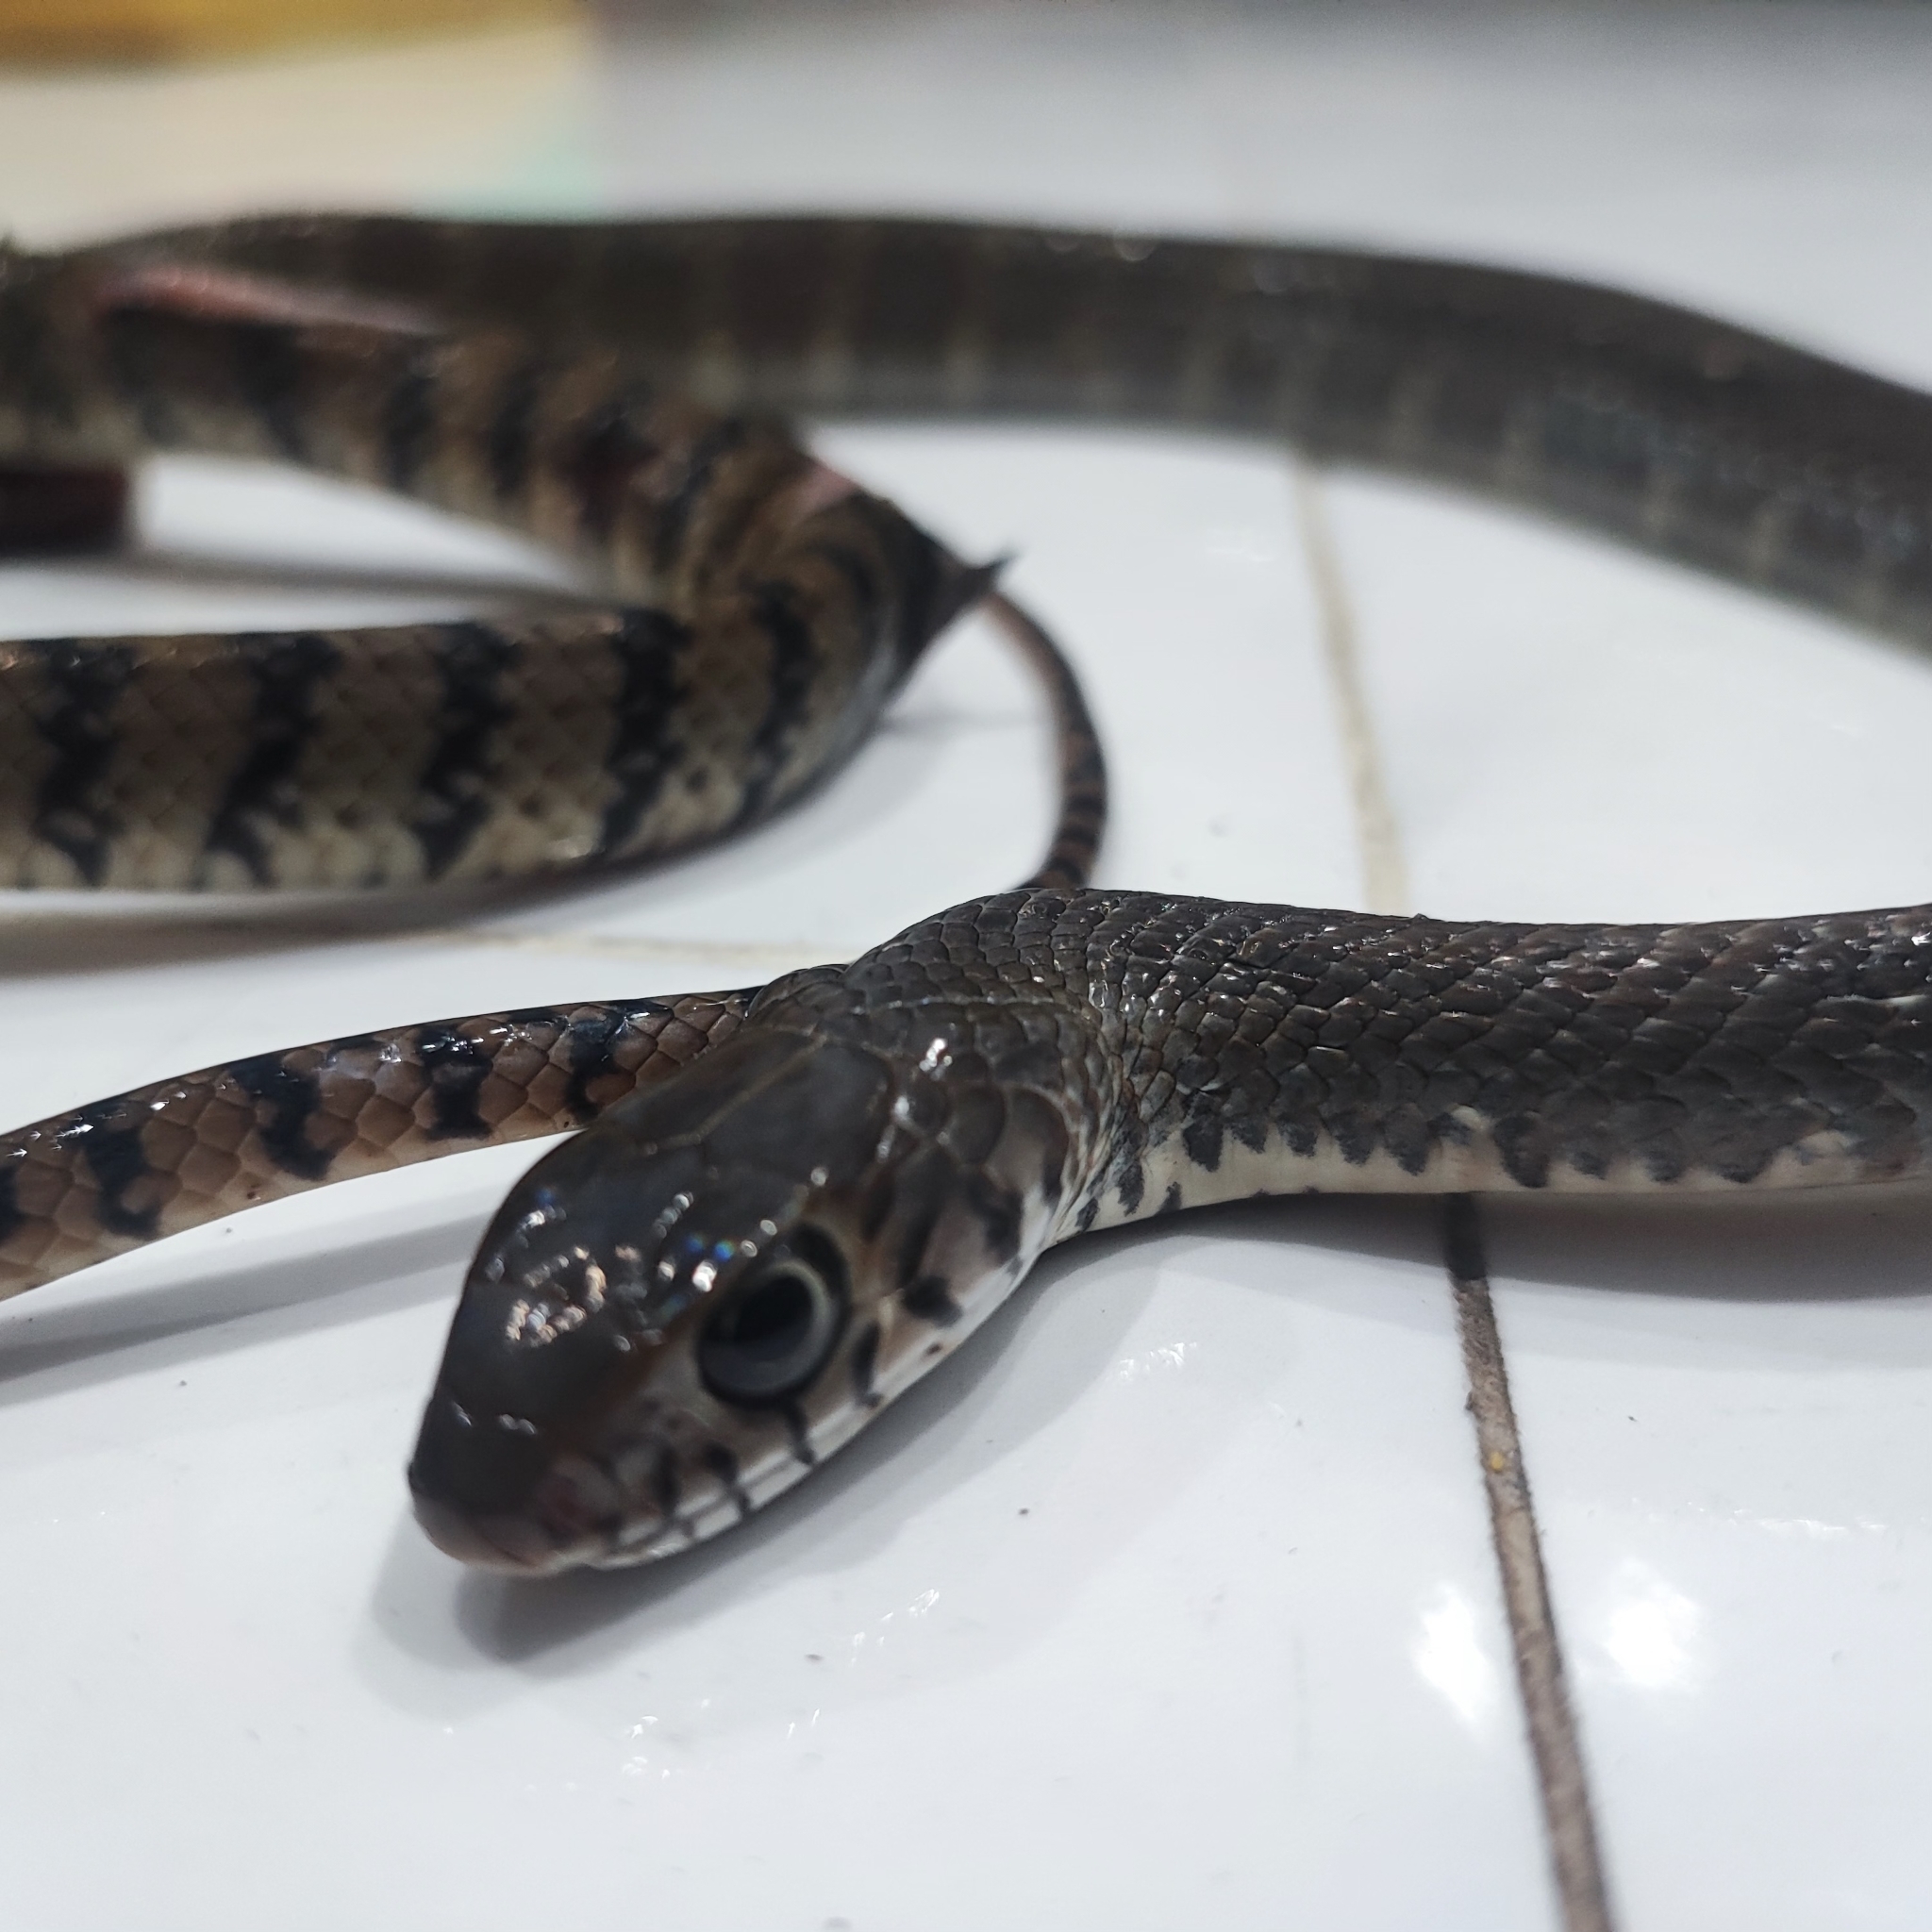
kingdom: Animalia
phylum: Chordata
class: Squamata
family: Colubridae
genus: Ptyas
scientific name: Ptyas mucosa
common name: Oriental ratsnake
